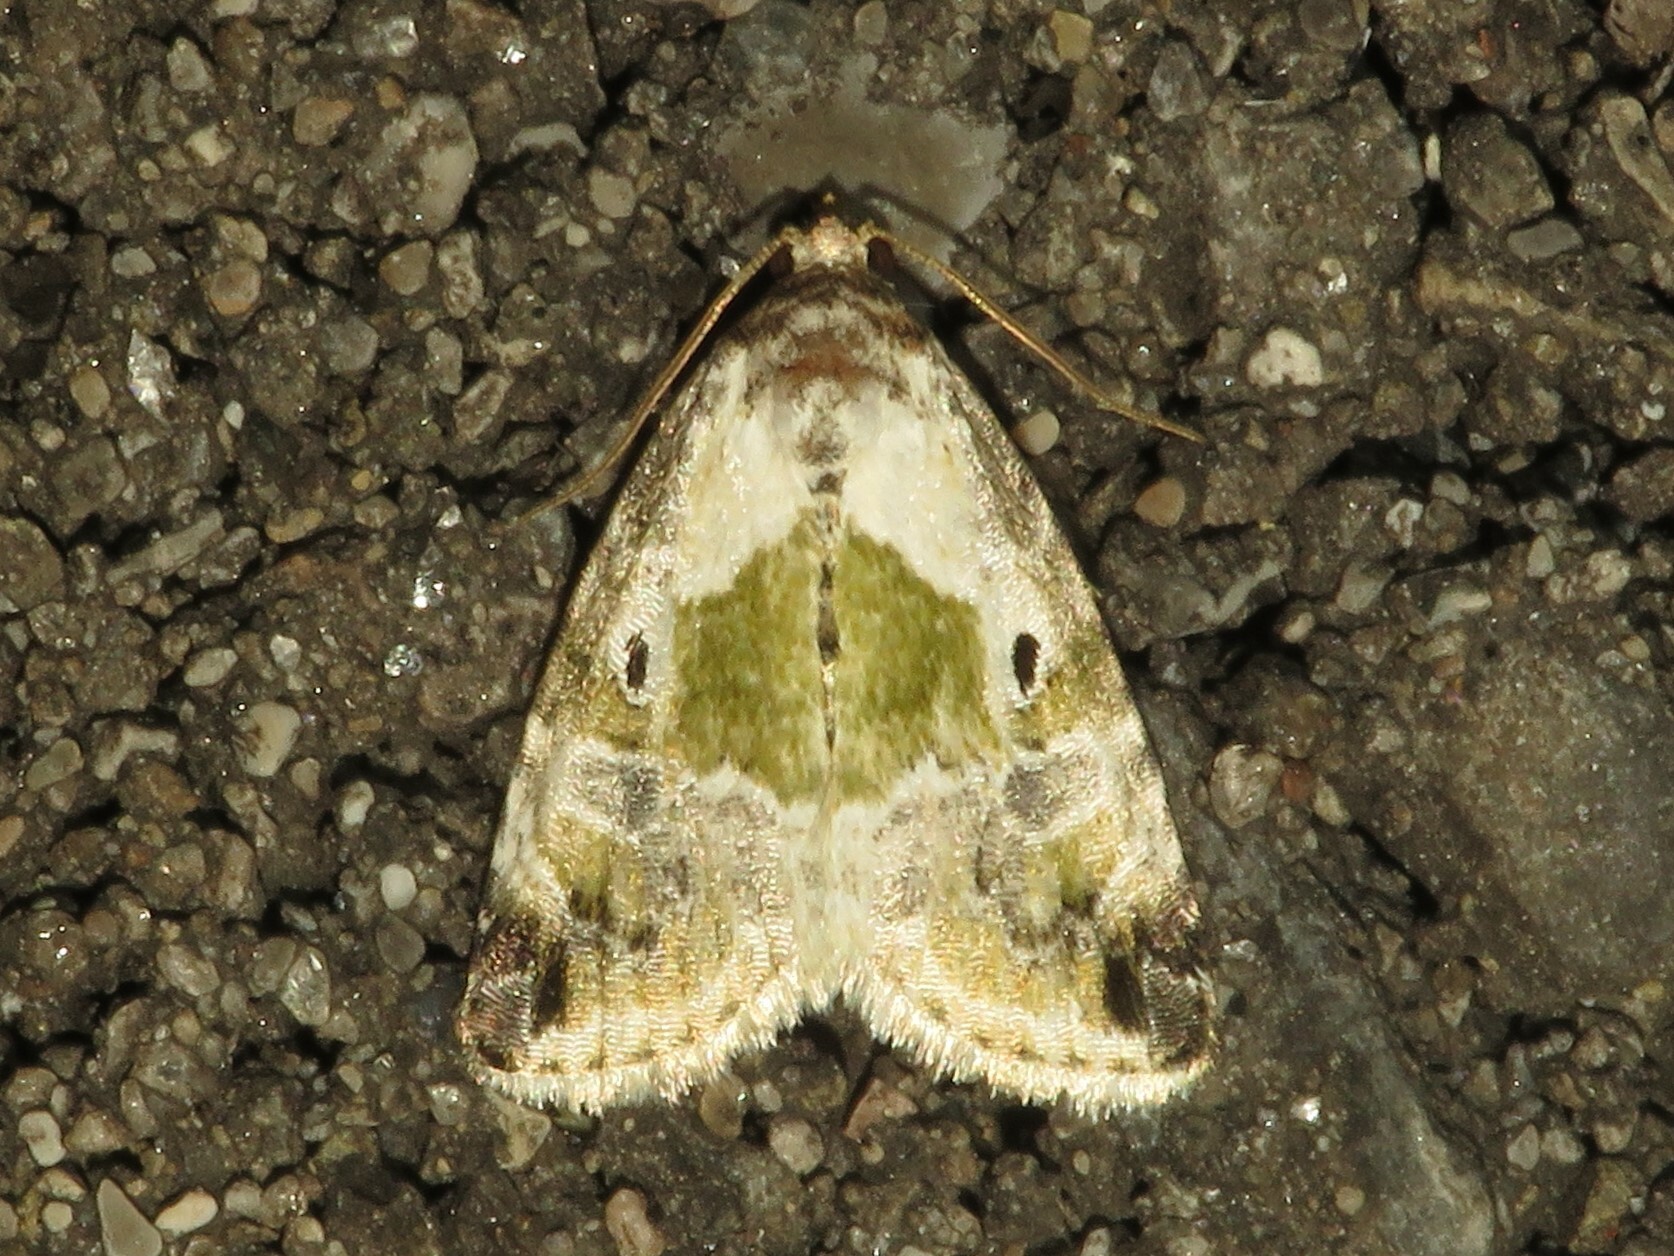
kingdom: Animalia
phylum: Arthropoda
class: Insecta
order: Lepidoptera
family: Noctuidae
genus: Maliattha
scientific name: Maliattha synochitis
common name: Black-dotted glyph
